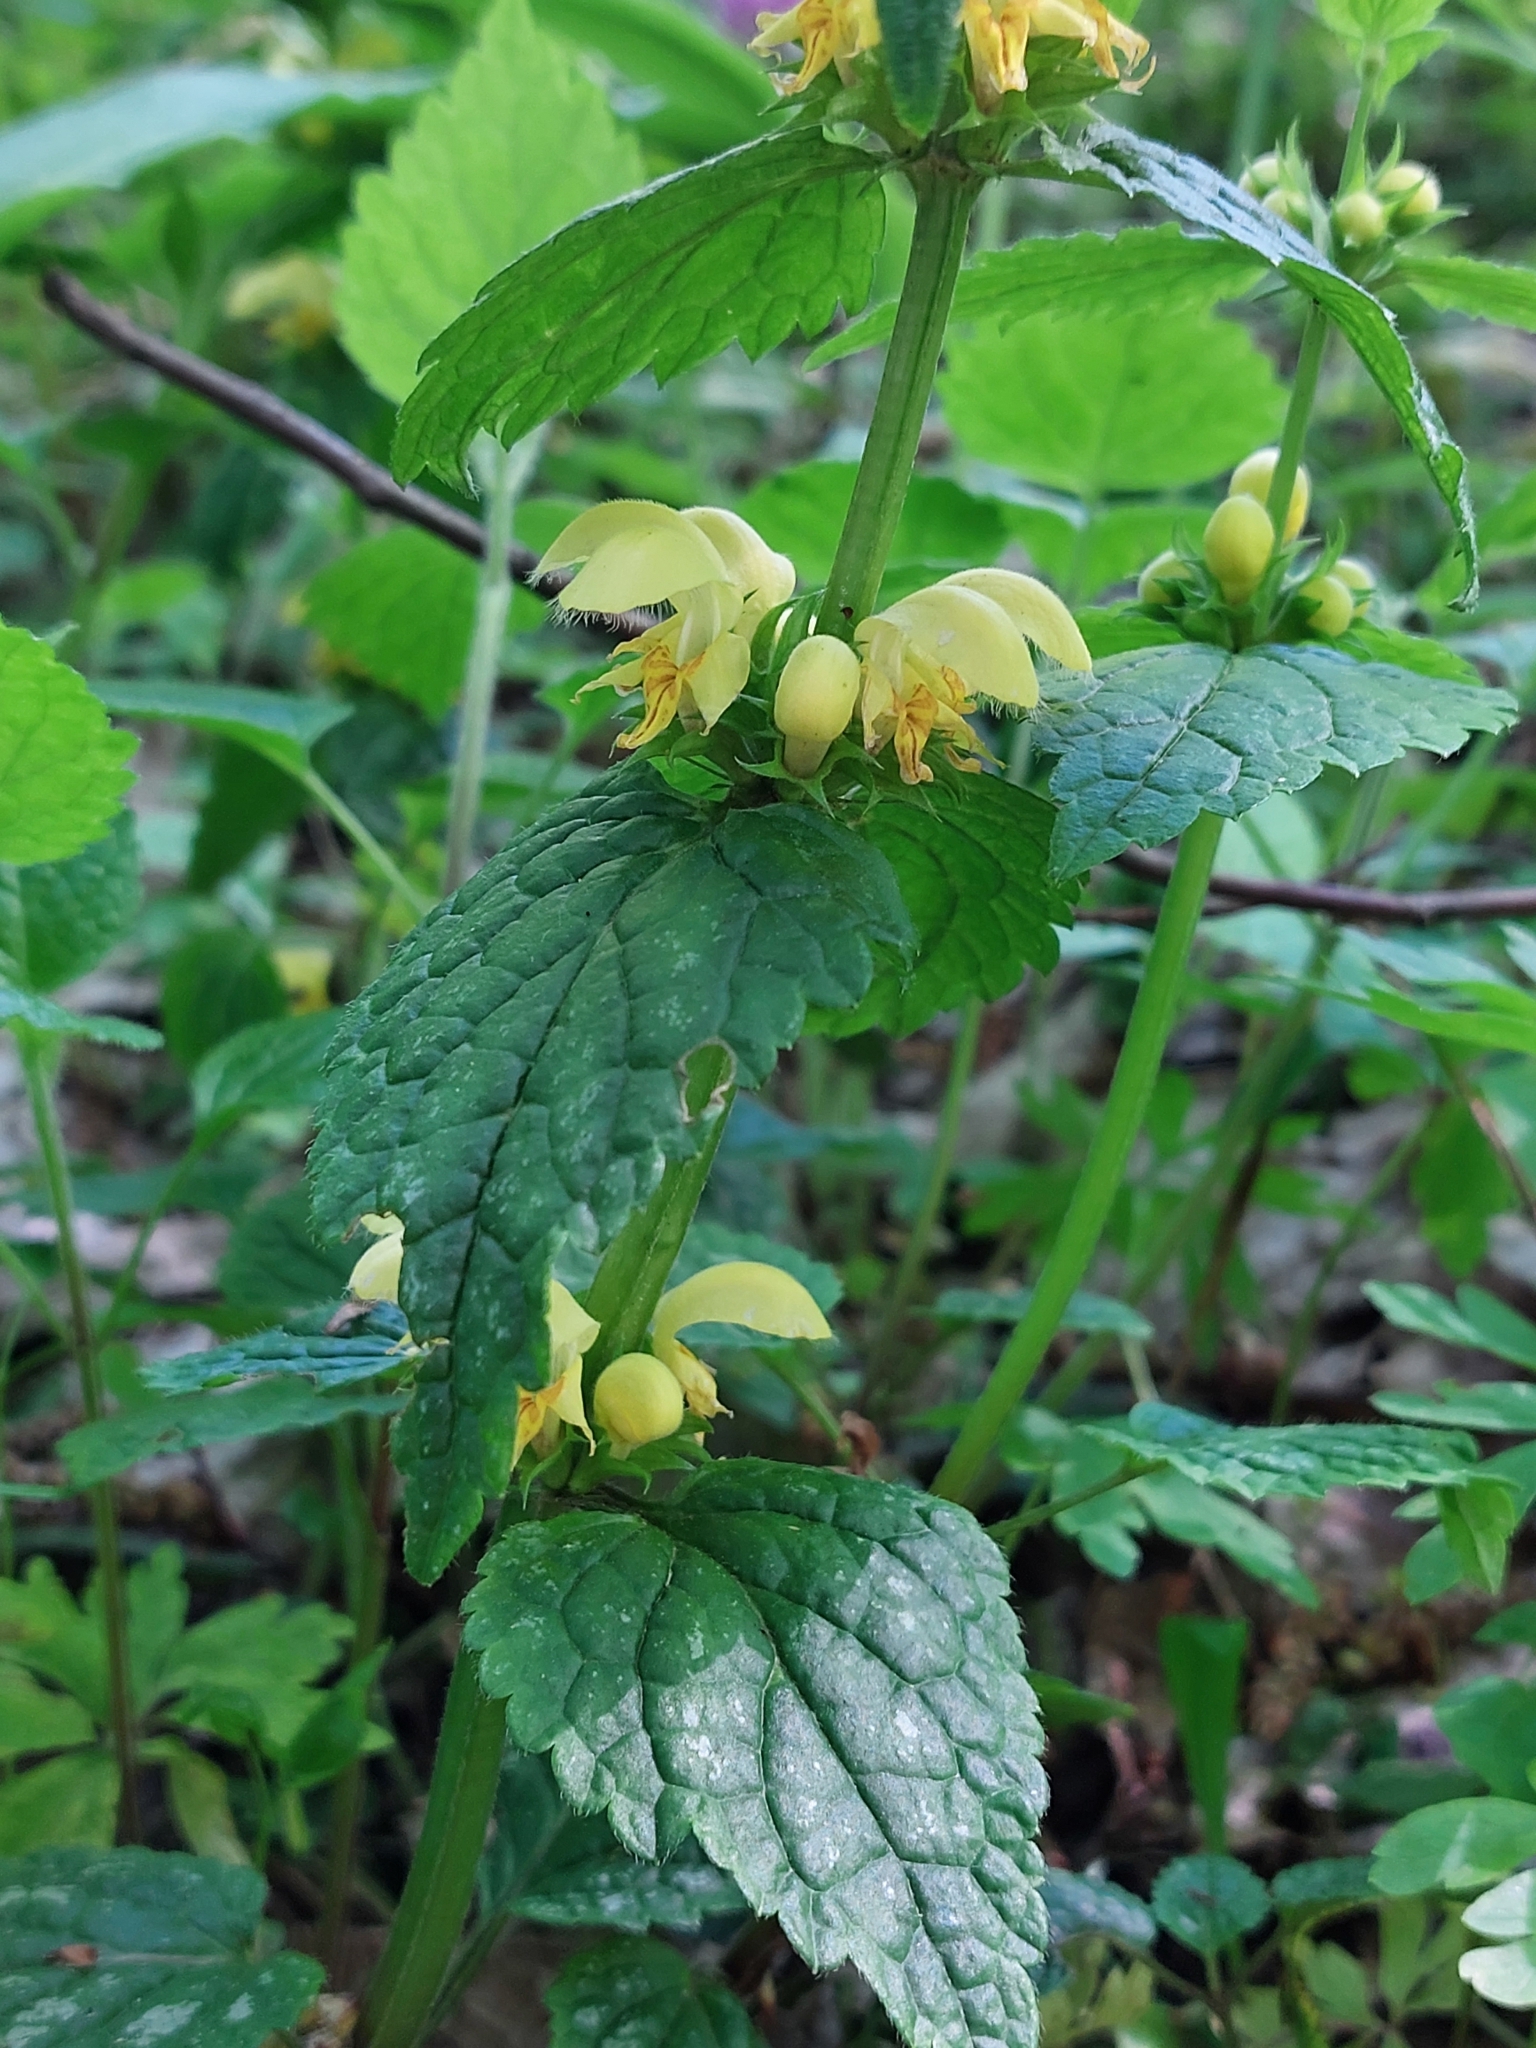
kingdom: Plantae
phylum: Tracheophyta
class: Magnoliopsida
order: Lamiales
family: Lamiaceae
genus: Lamium
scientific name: Lamium galeobdolon
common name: Yellow archangel
